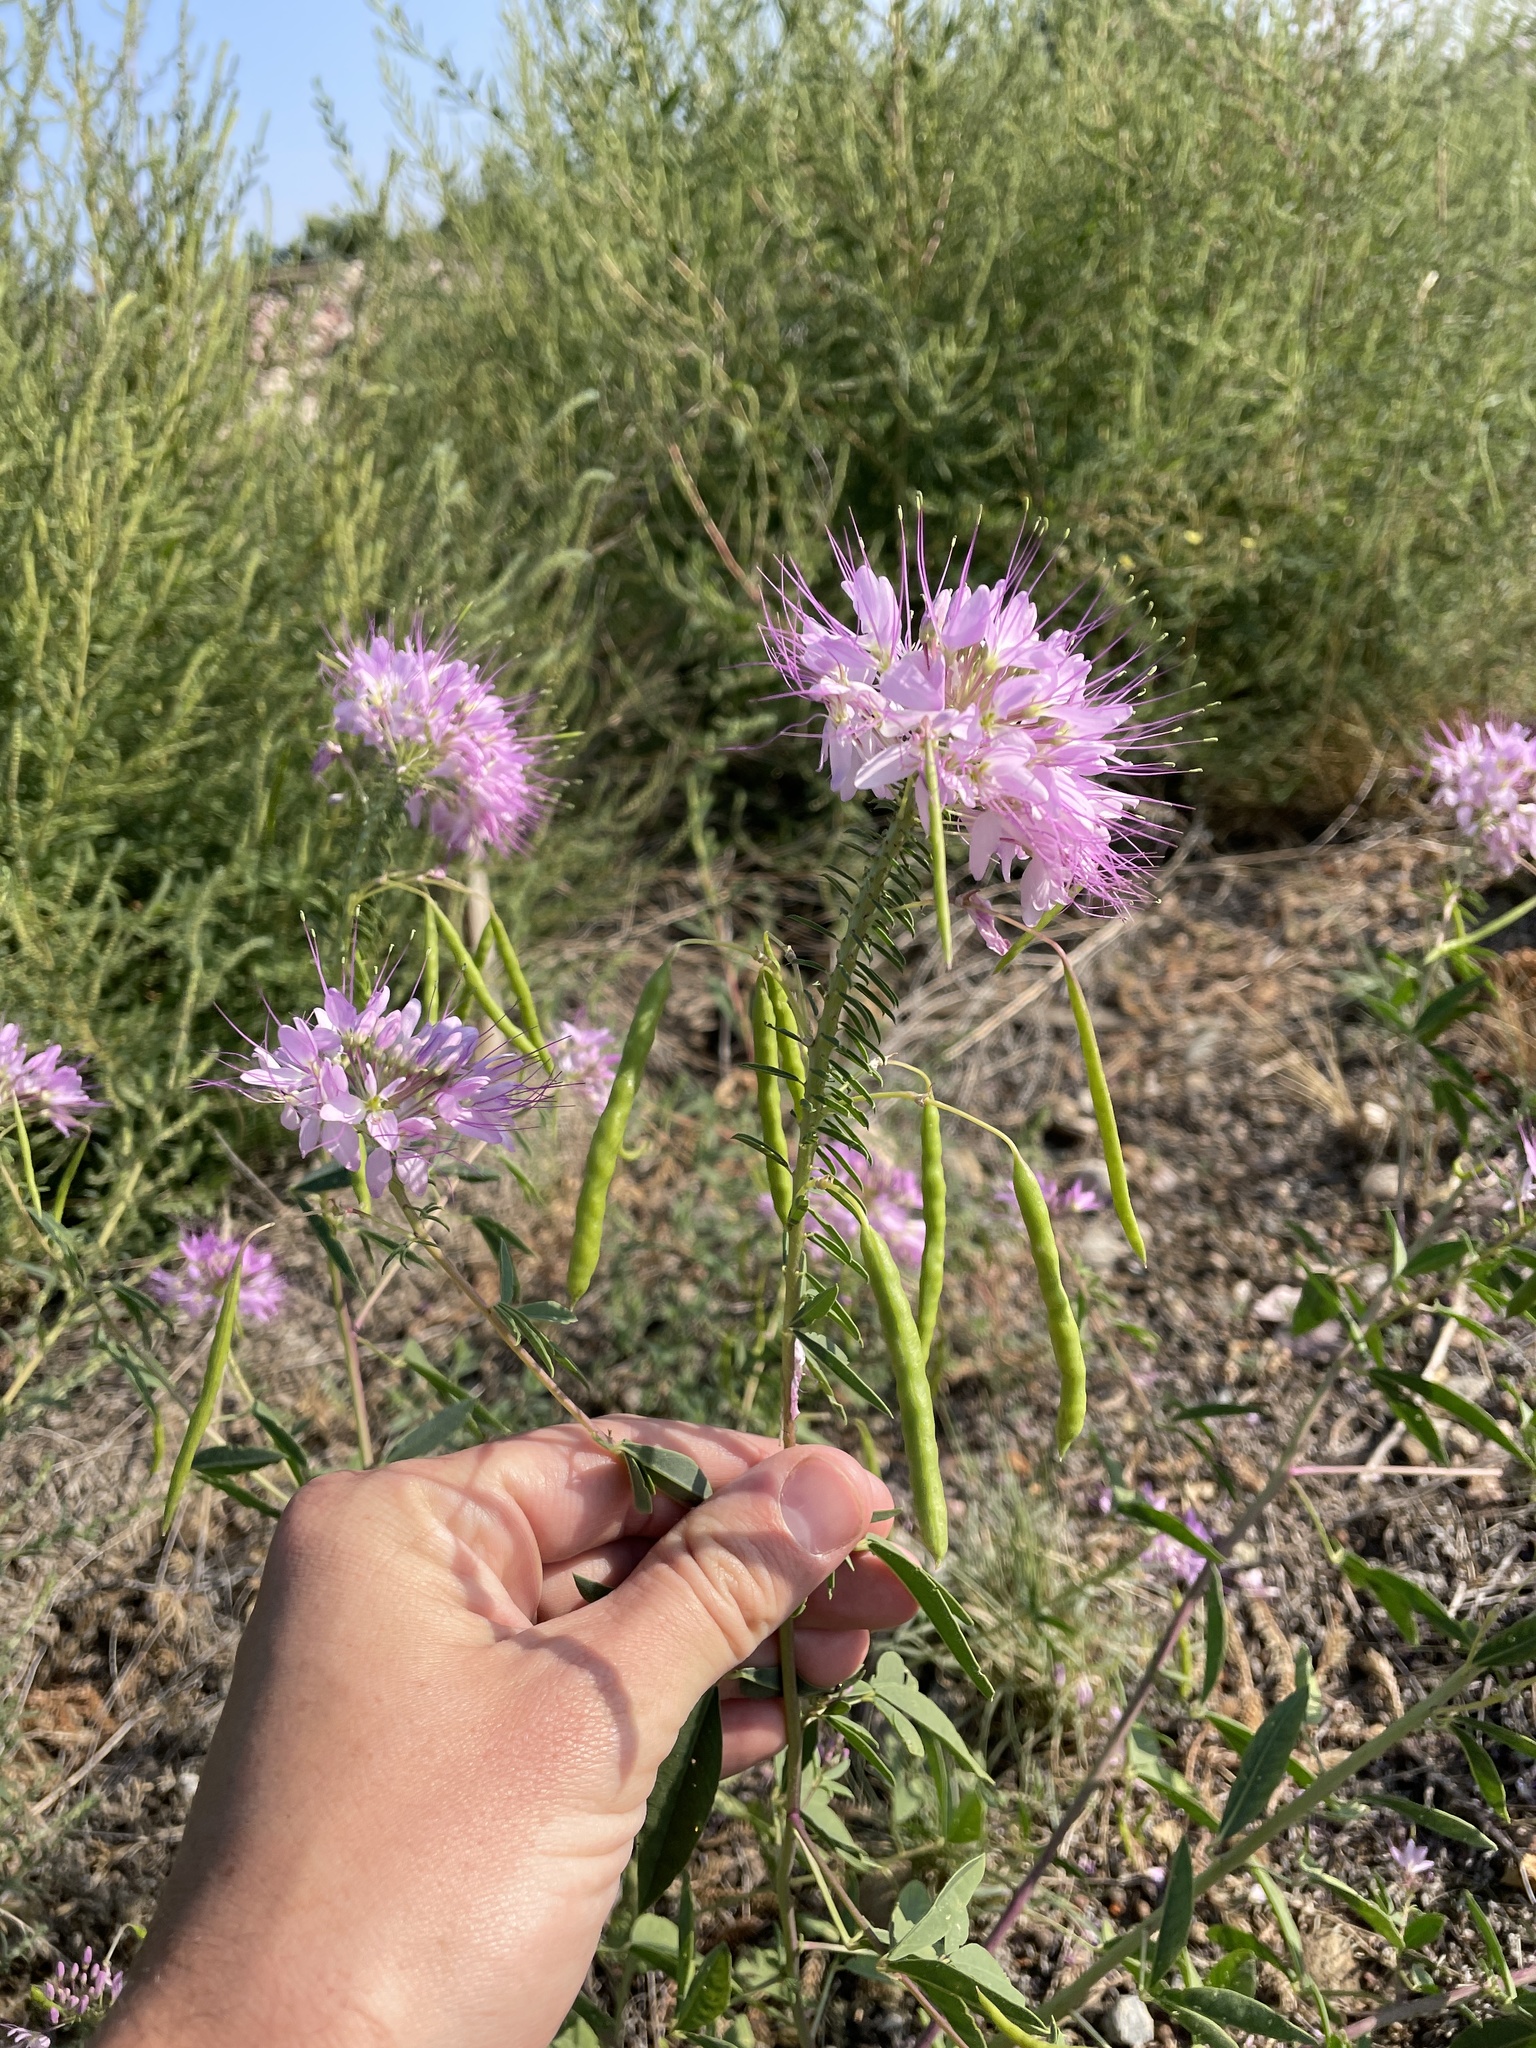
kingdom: Plantae
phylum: Tracheophyta
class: Magnoliopsida
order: Brassicales
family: Cleomaceae
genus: Cleomella
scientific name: Cleomella serrulata
